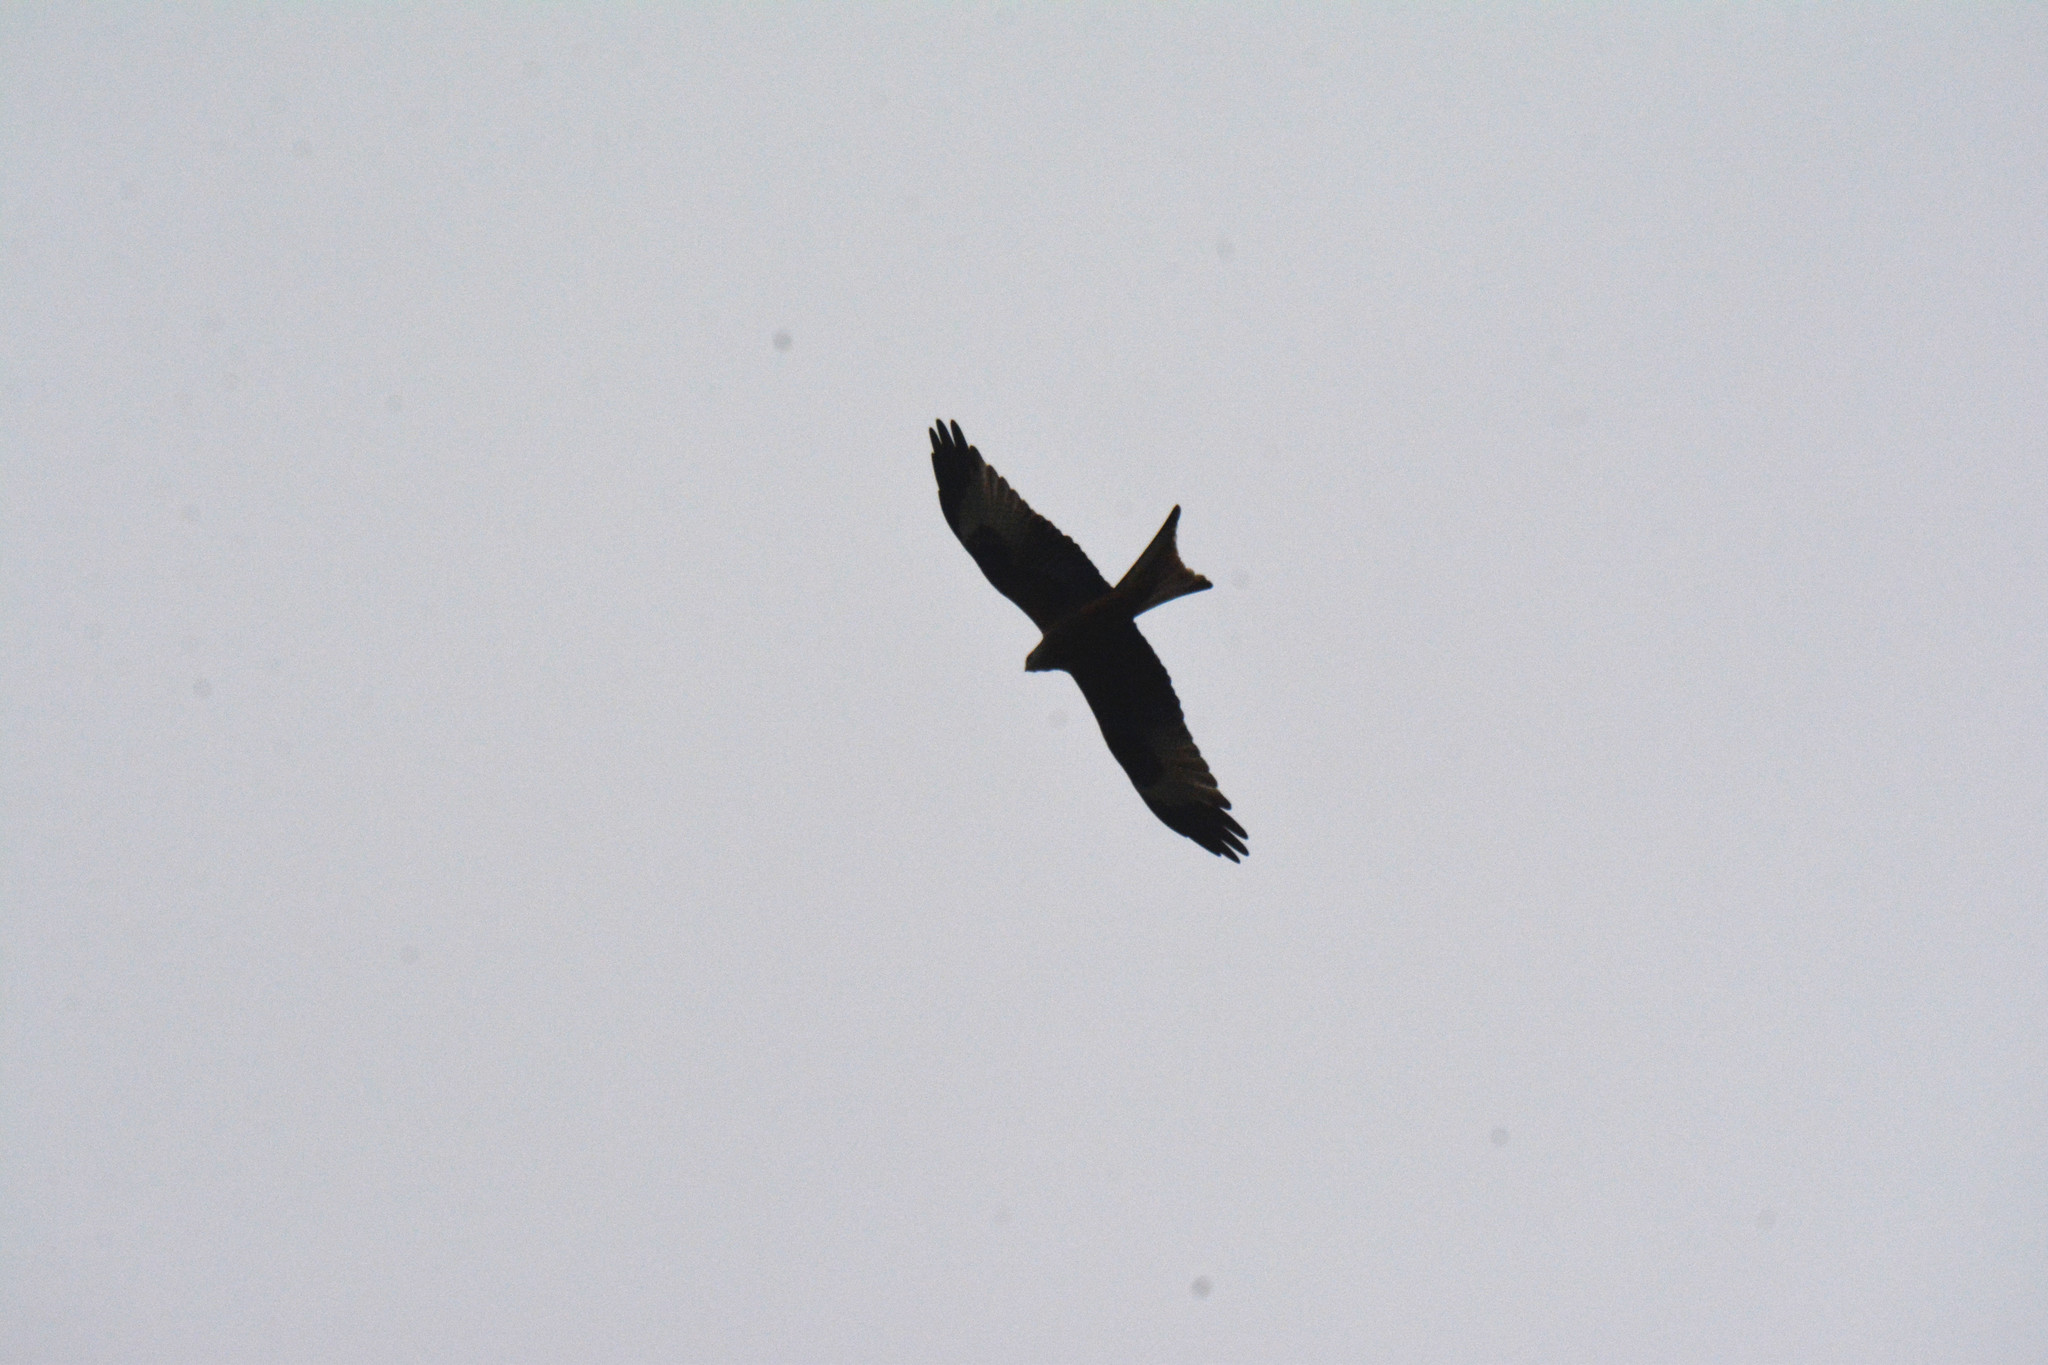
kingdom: Animalia
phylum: Chordata
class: Aves
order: Accipitriformes
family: Accipitridae
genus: Milvus
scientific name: Milvus milvus
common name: Red kite
